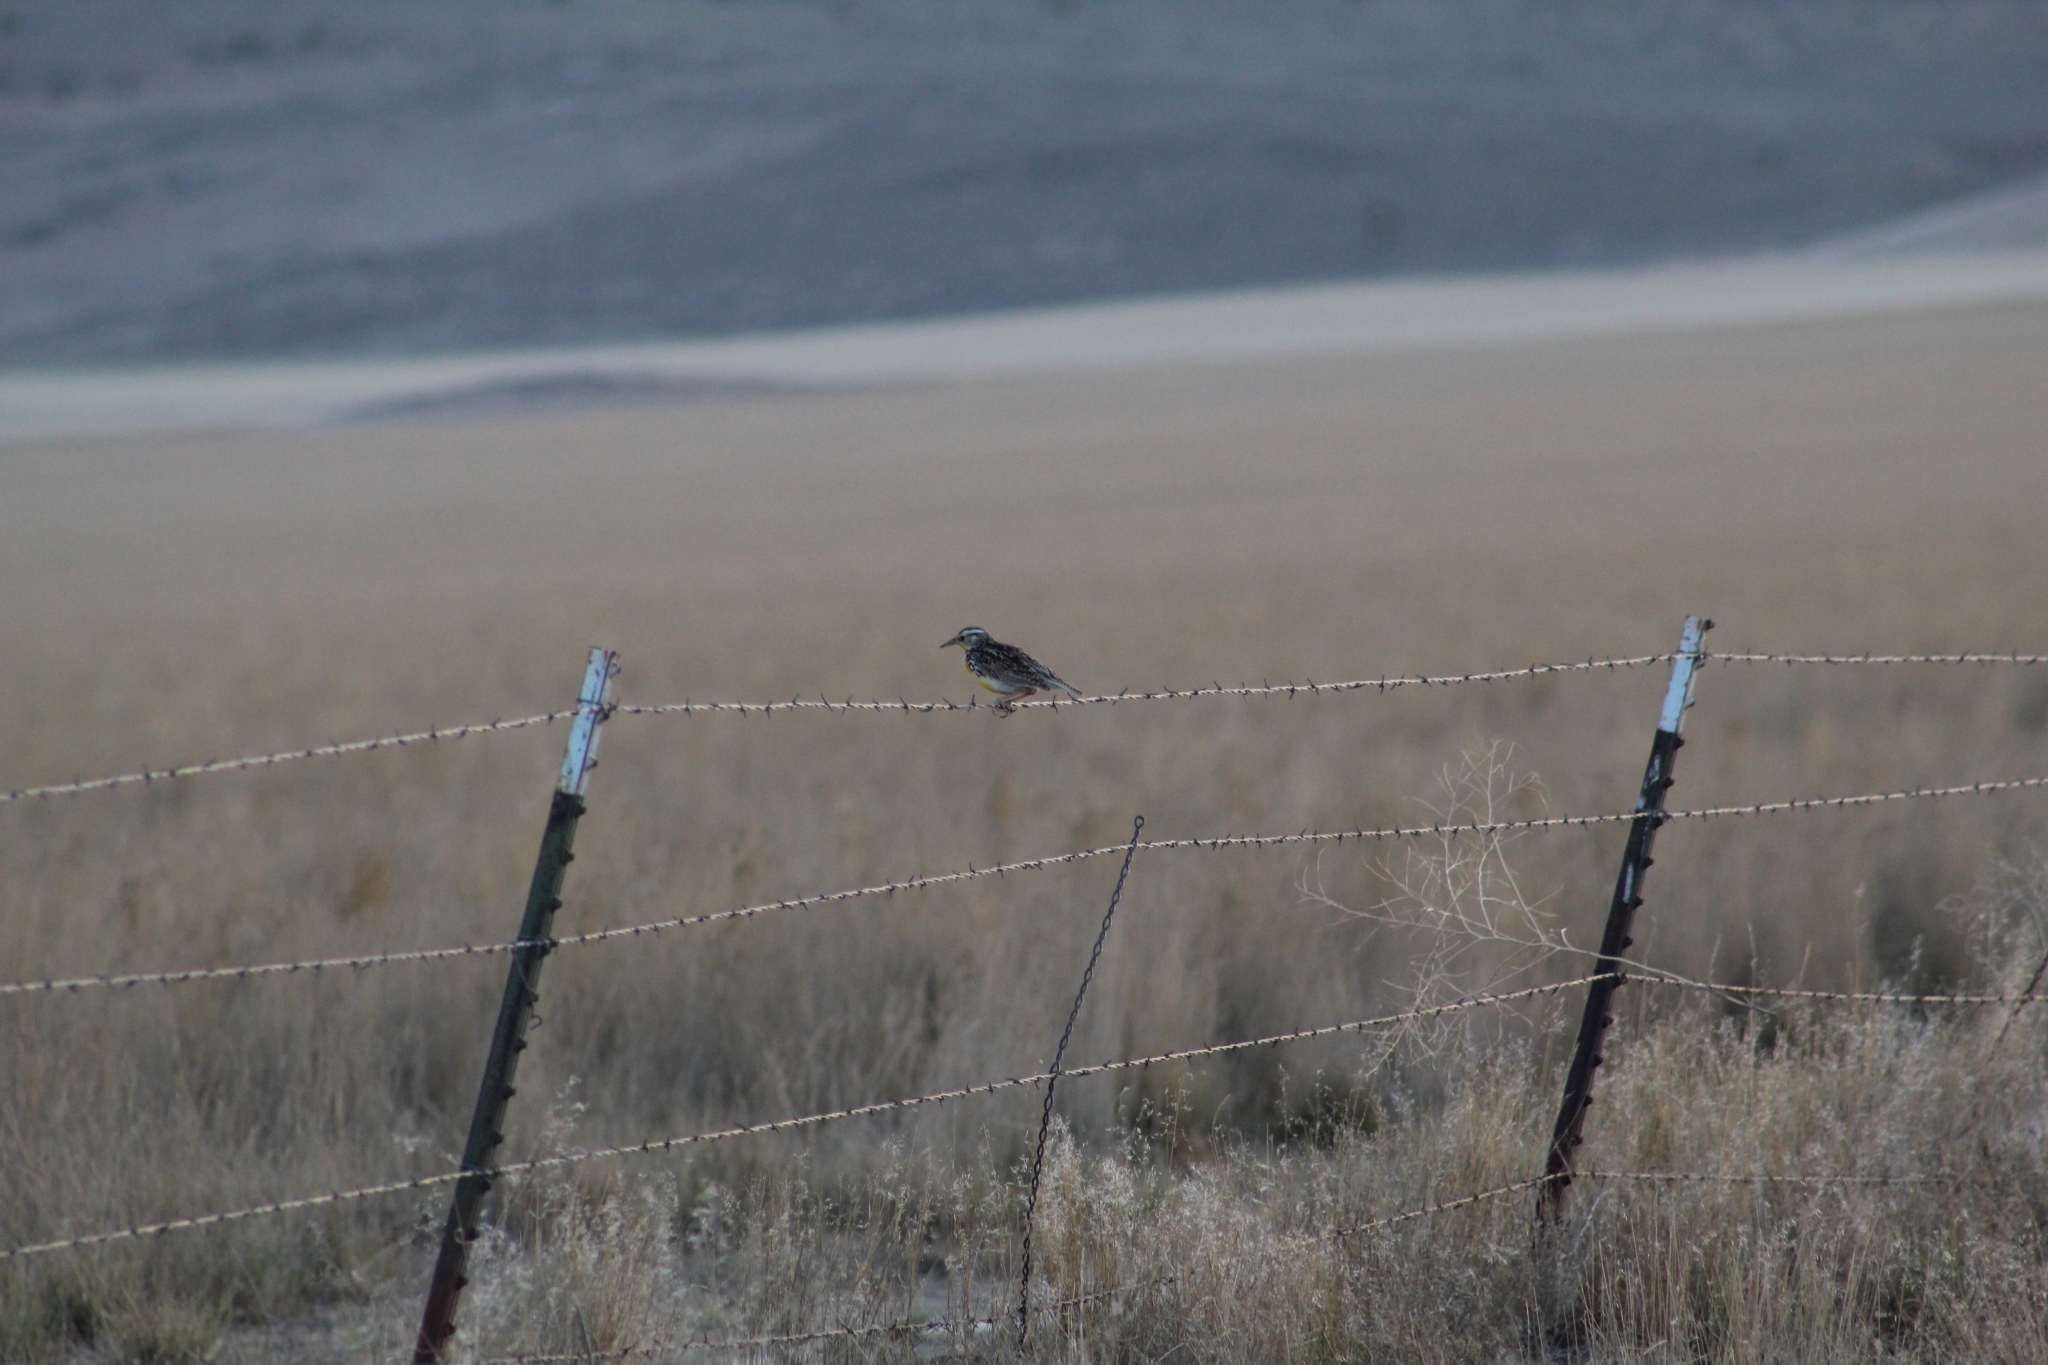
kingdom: Animalia
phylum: Chordata
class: Aves
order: Passeriformes
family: Icteridae
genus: Sturnella
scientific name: Sturnella neglecta
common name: Western meadowlark
